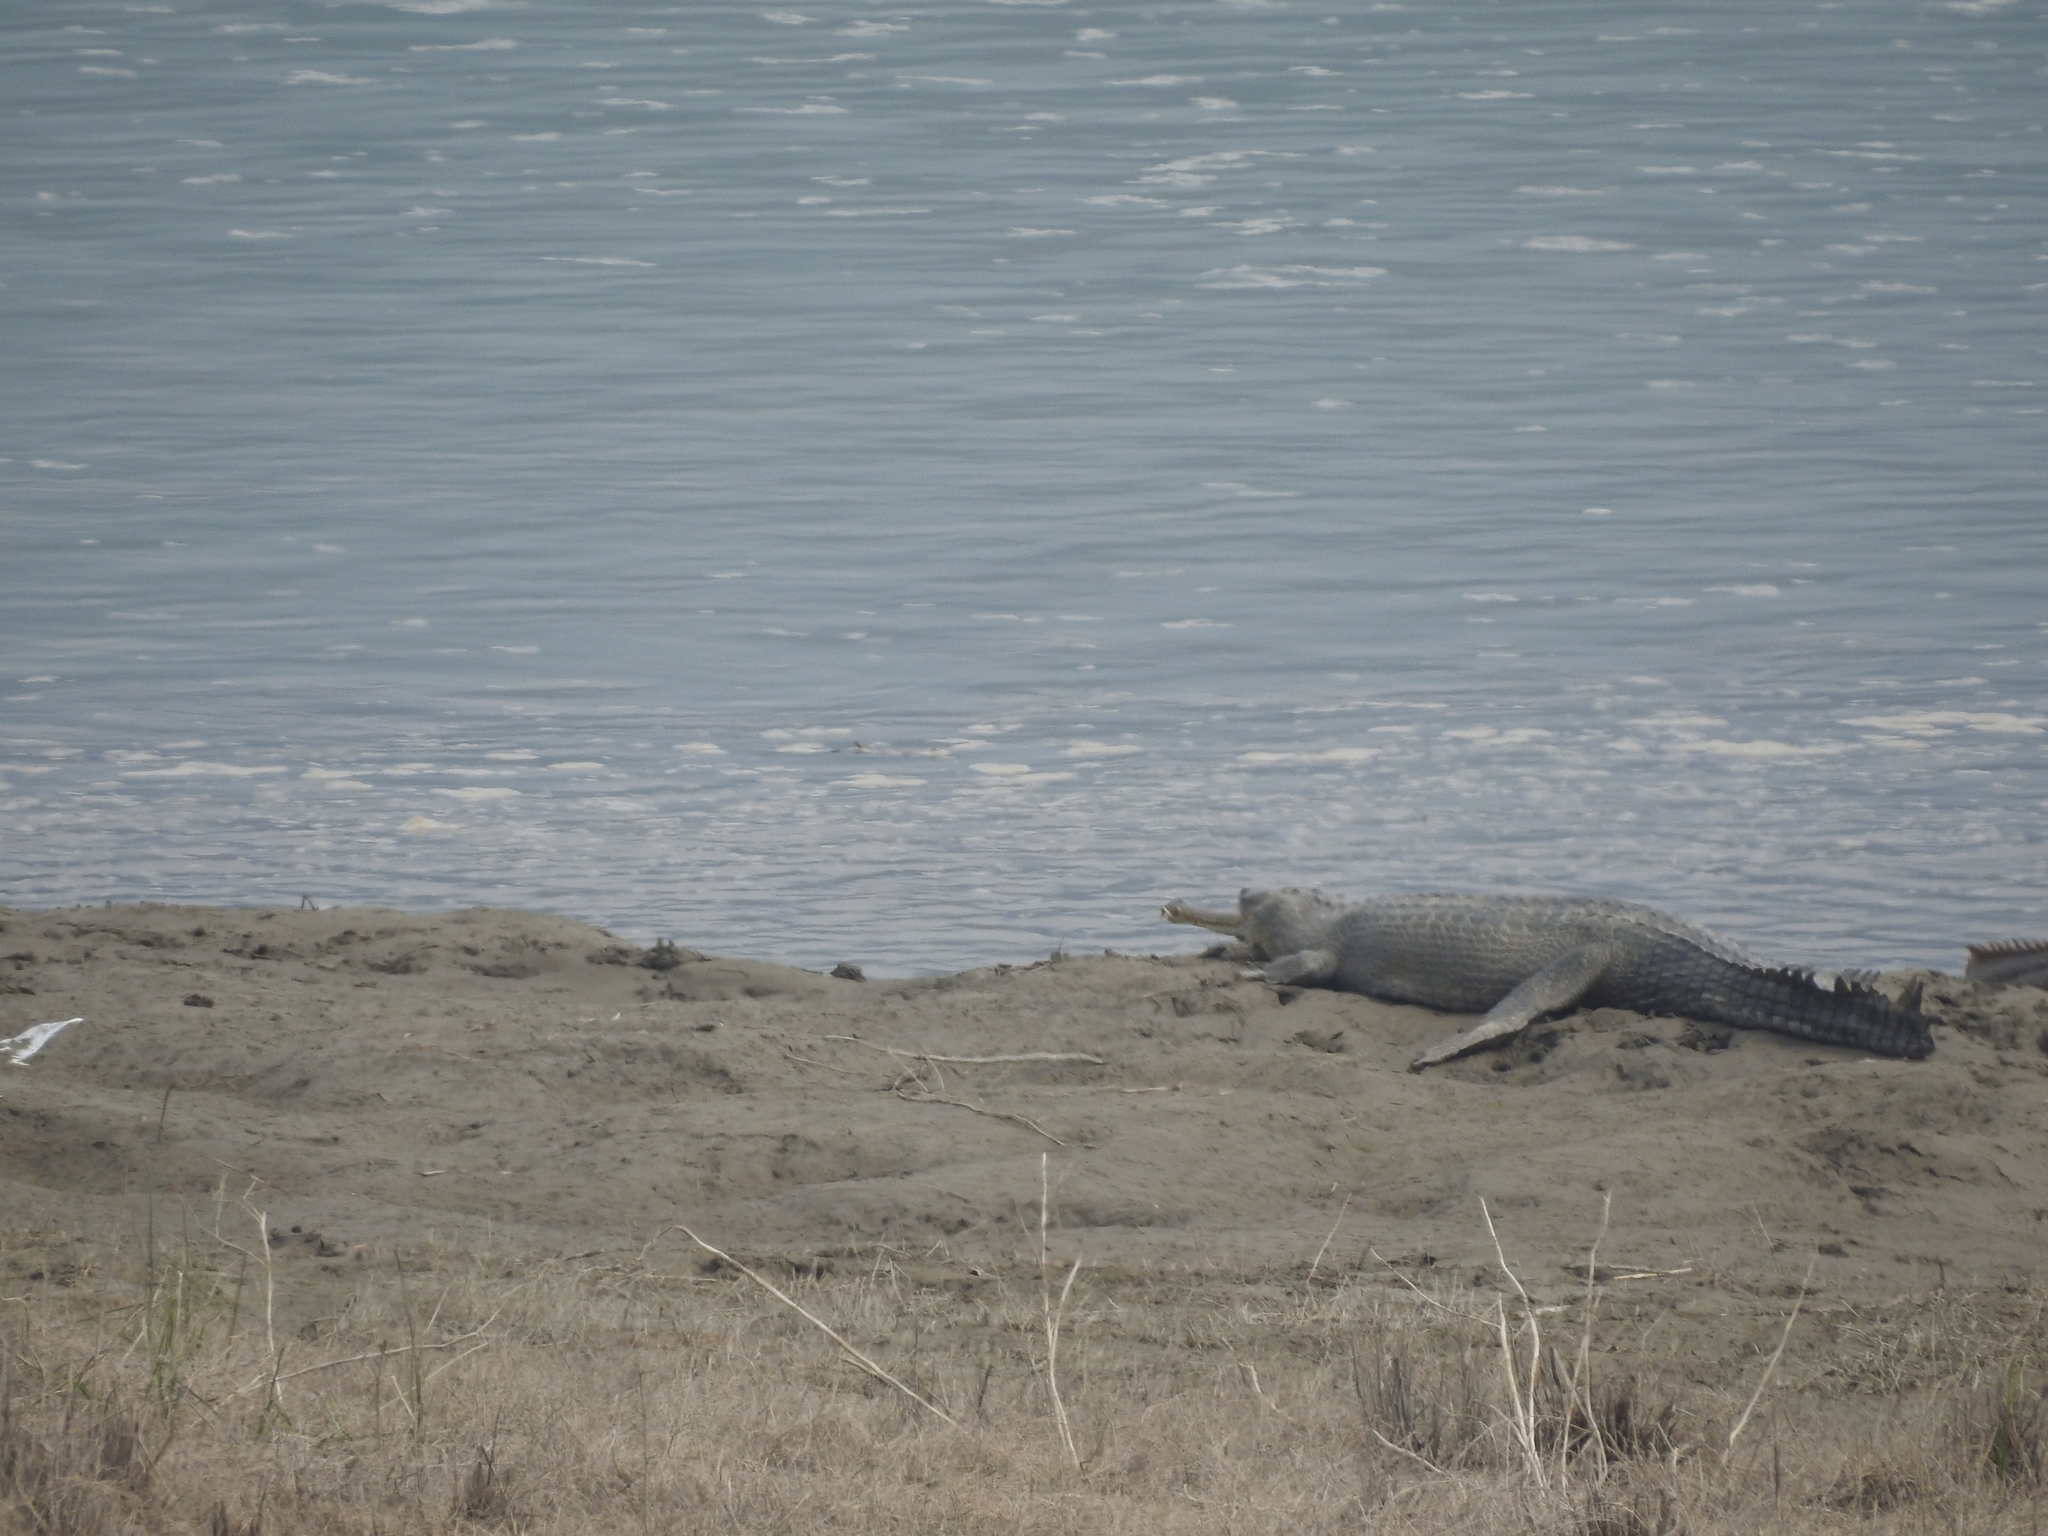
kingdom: Animalia
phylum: Chordata
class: Crocodylia
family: Gavialidae
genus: Gavialis
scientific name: Gavialis gangeticus
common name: Gharial
